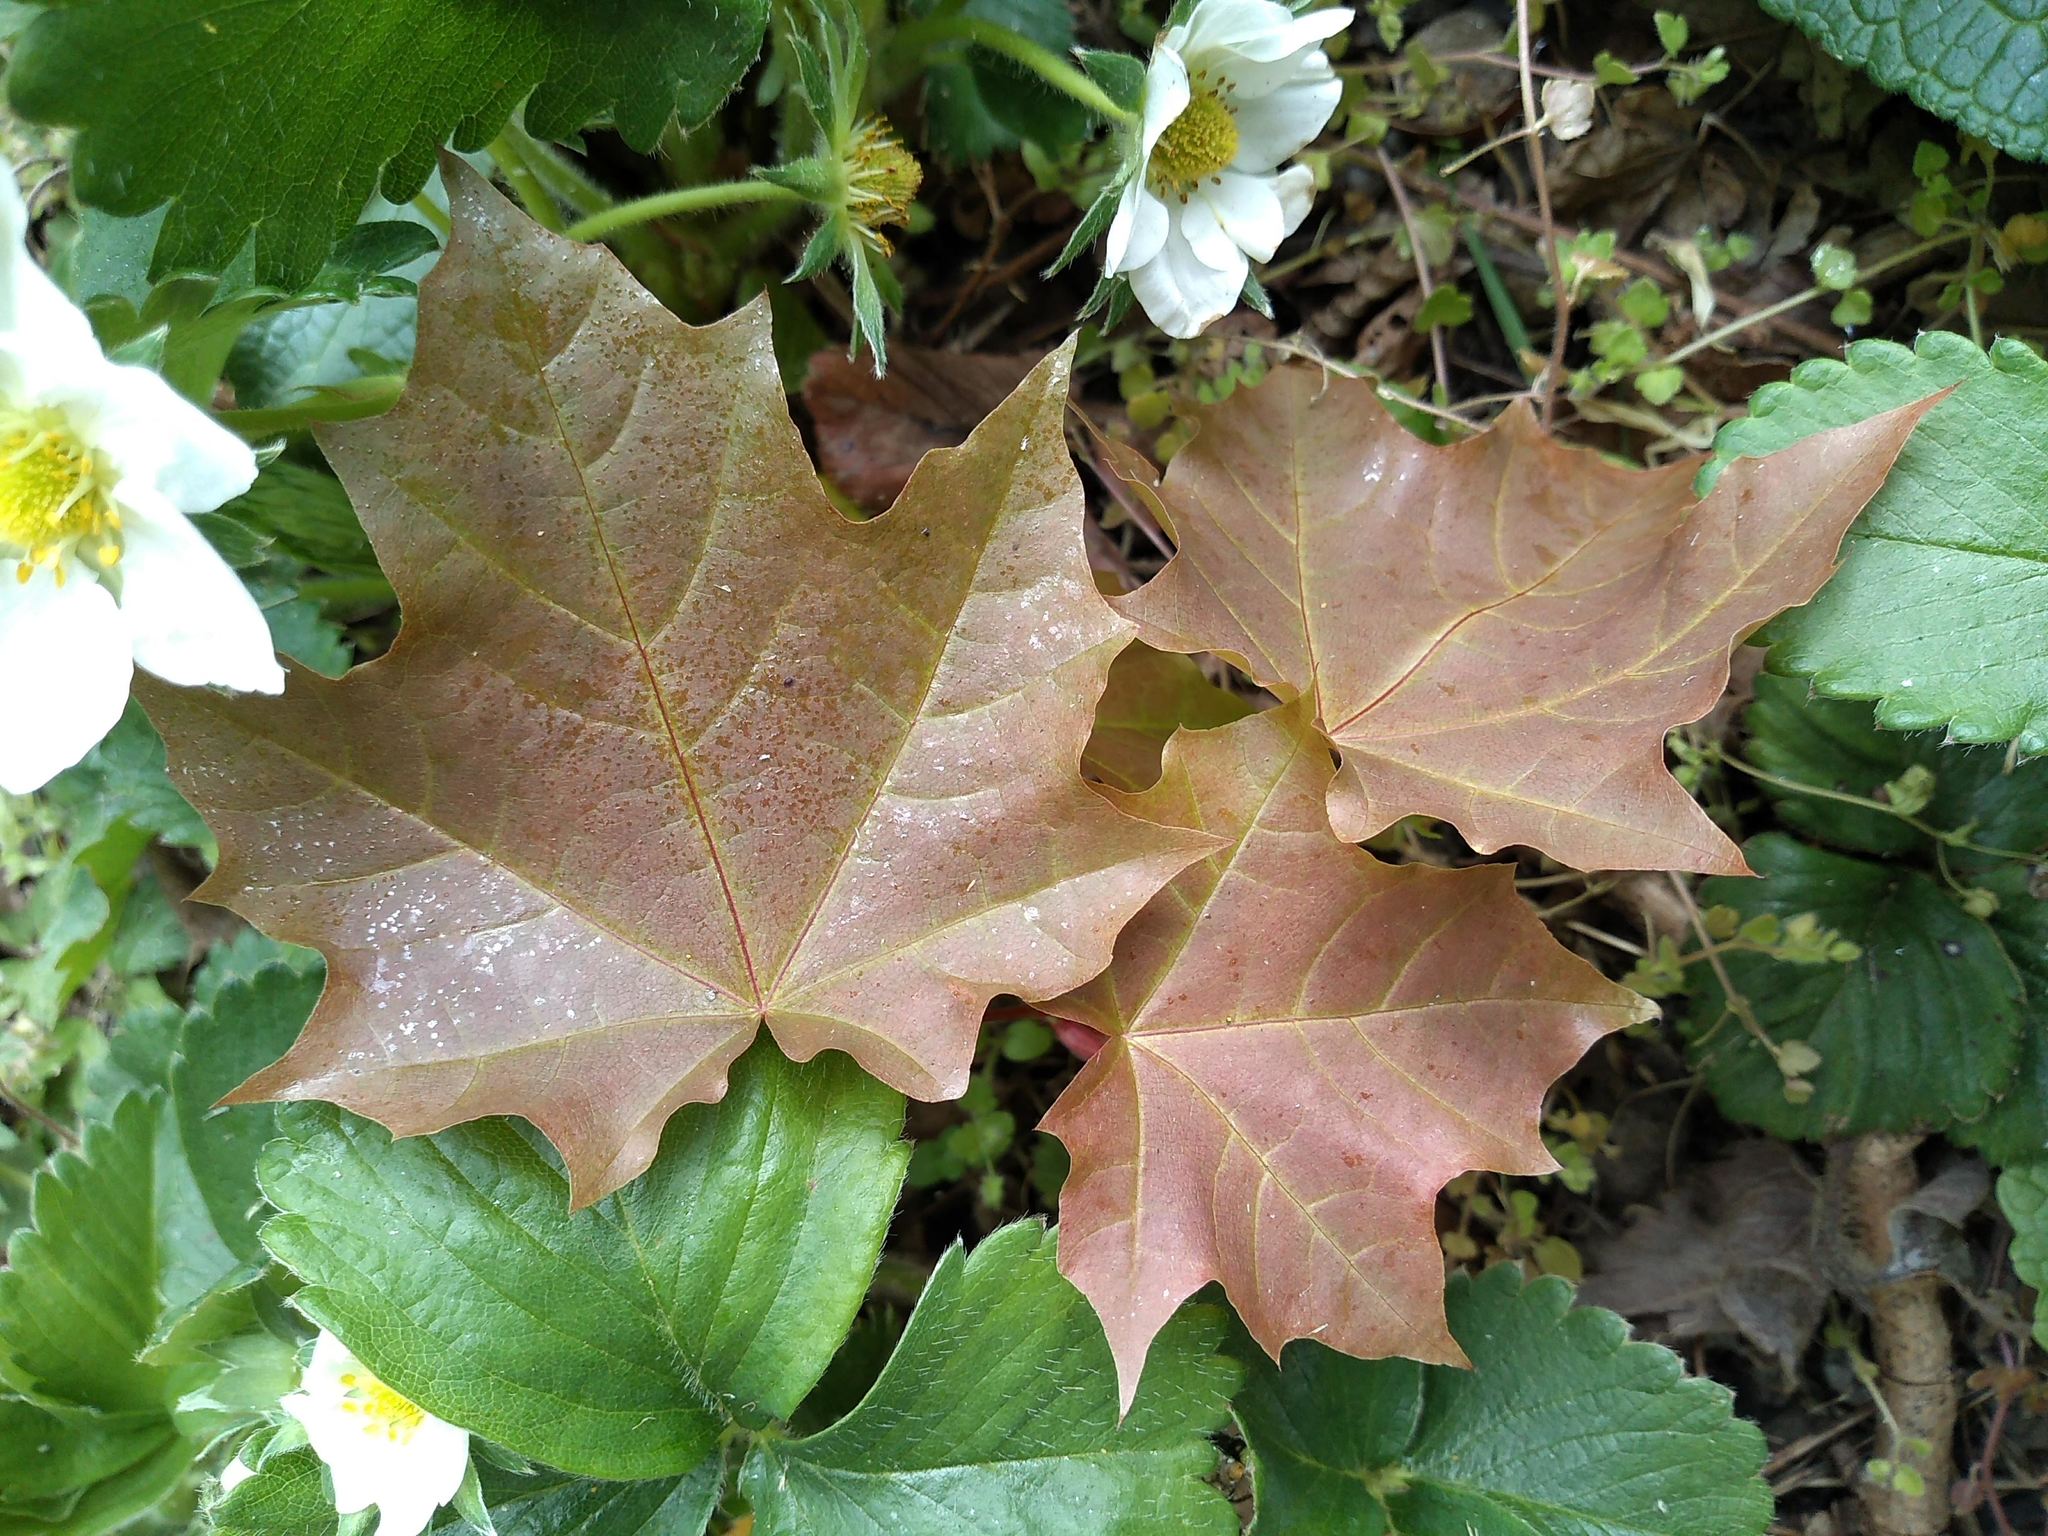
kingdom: Plantae
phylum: Tracheophyta
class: Magnoliopsida
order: Sapindales
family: Sapindaceae
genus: Acer
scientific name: Acer platanoides
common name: Norway maple
